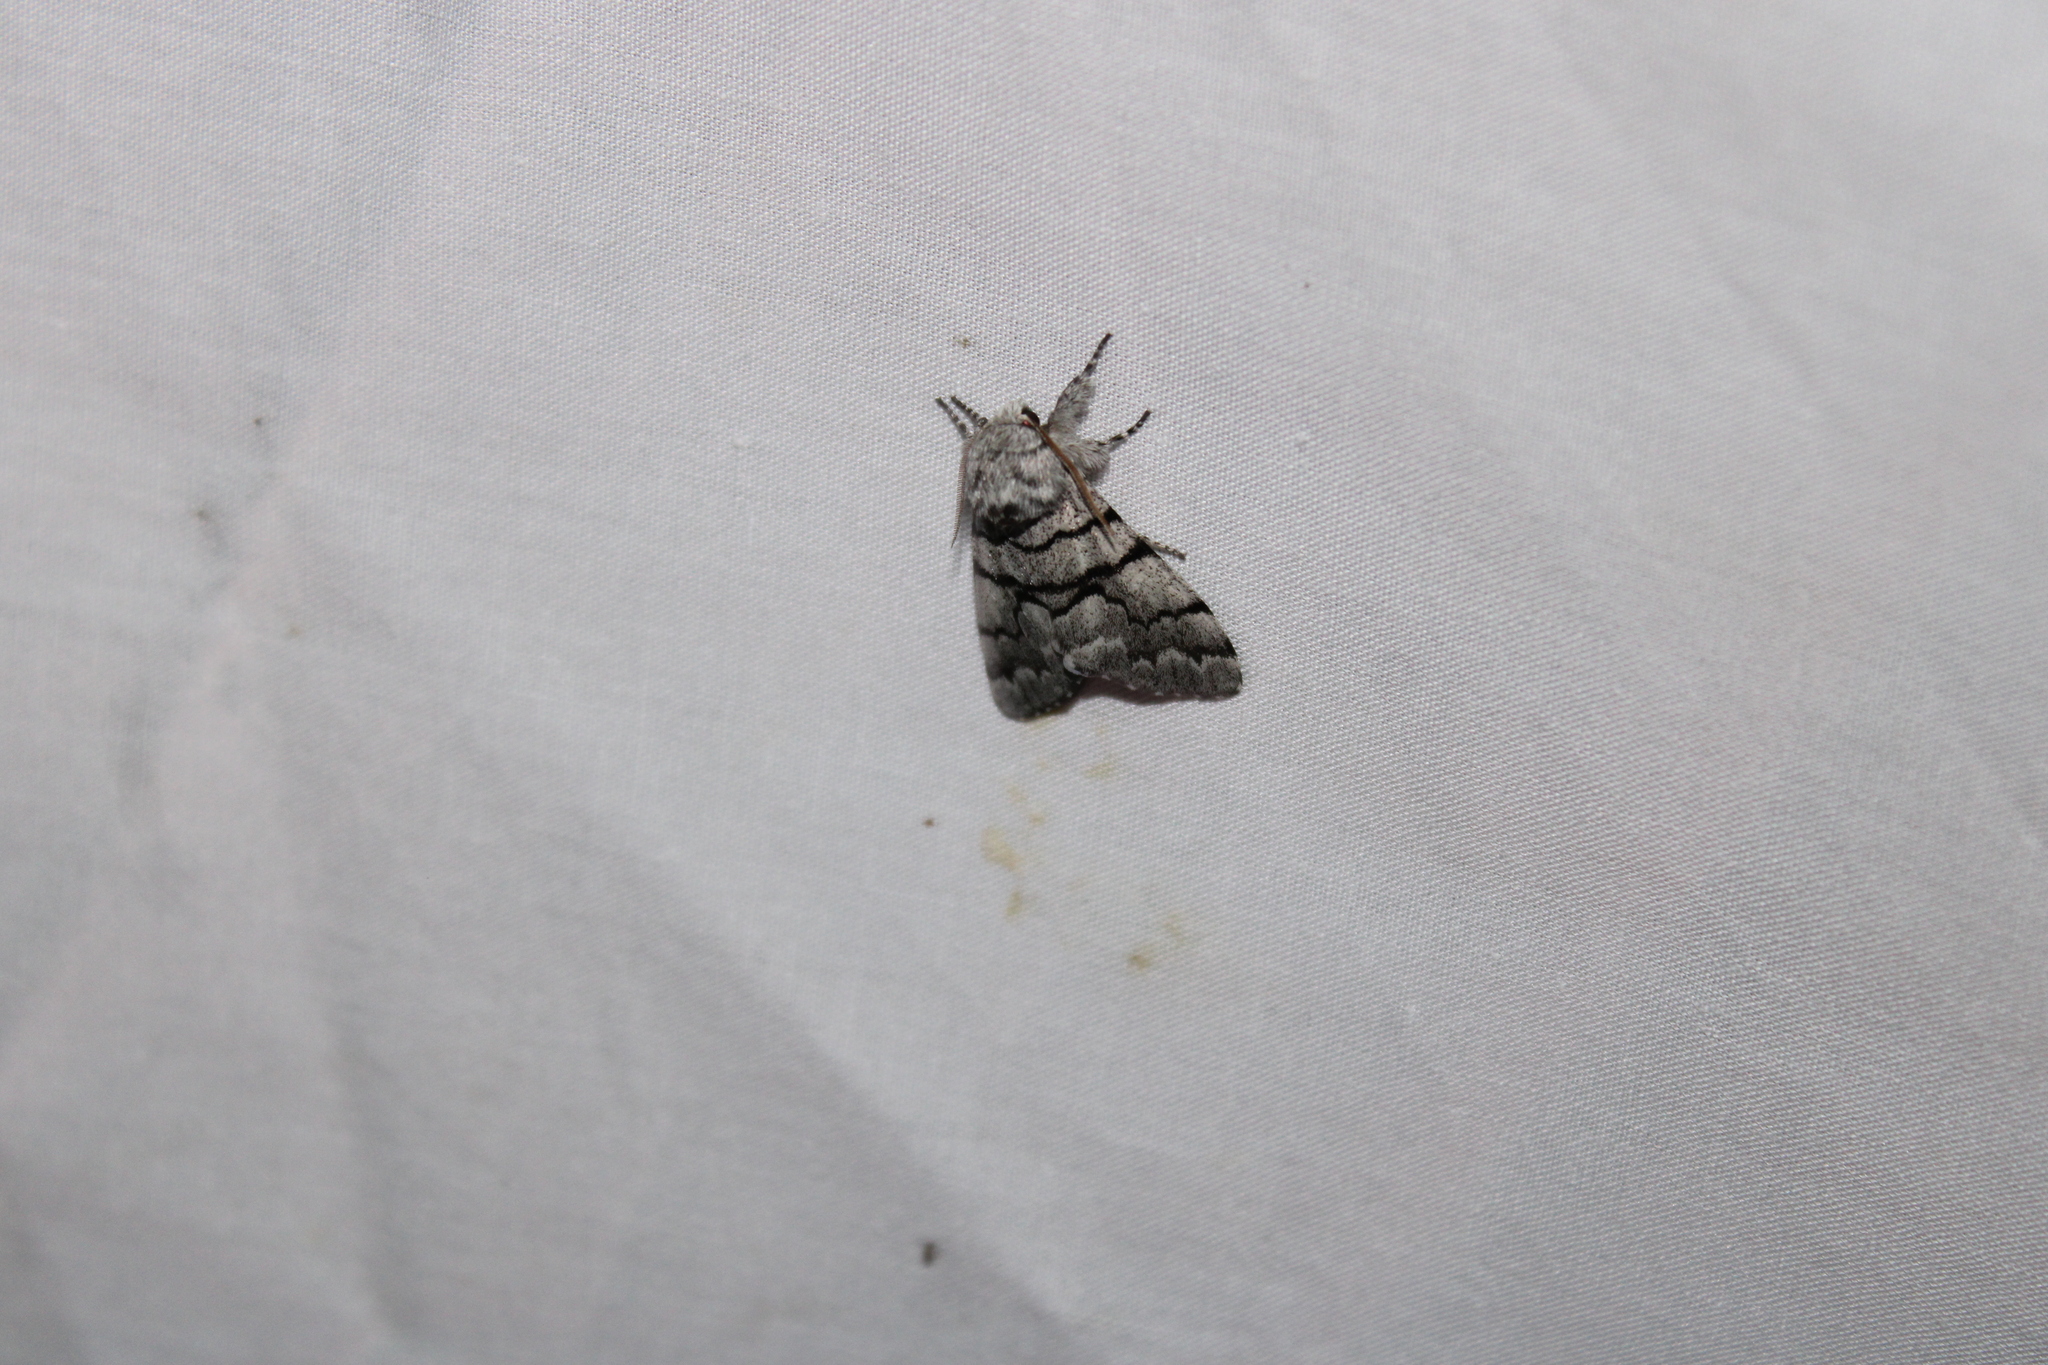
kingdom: Animalia
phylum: Arthropoda
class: Insecta
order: Lepidoptera
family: Noctuidae
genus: Panthea
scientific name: Panthea furcilla
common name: Eastern panthea moth
